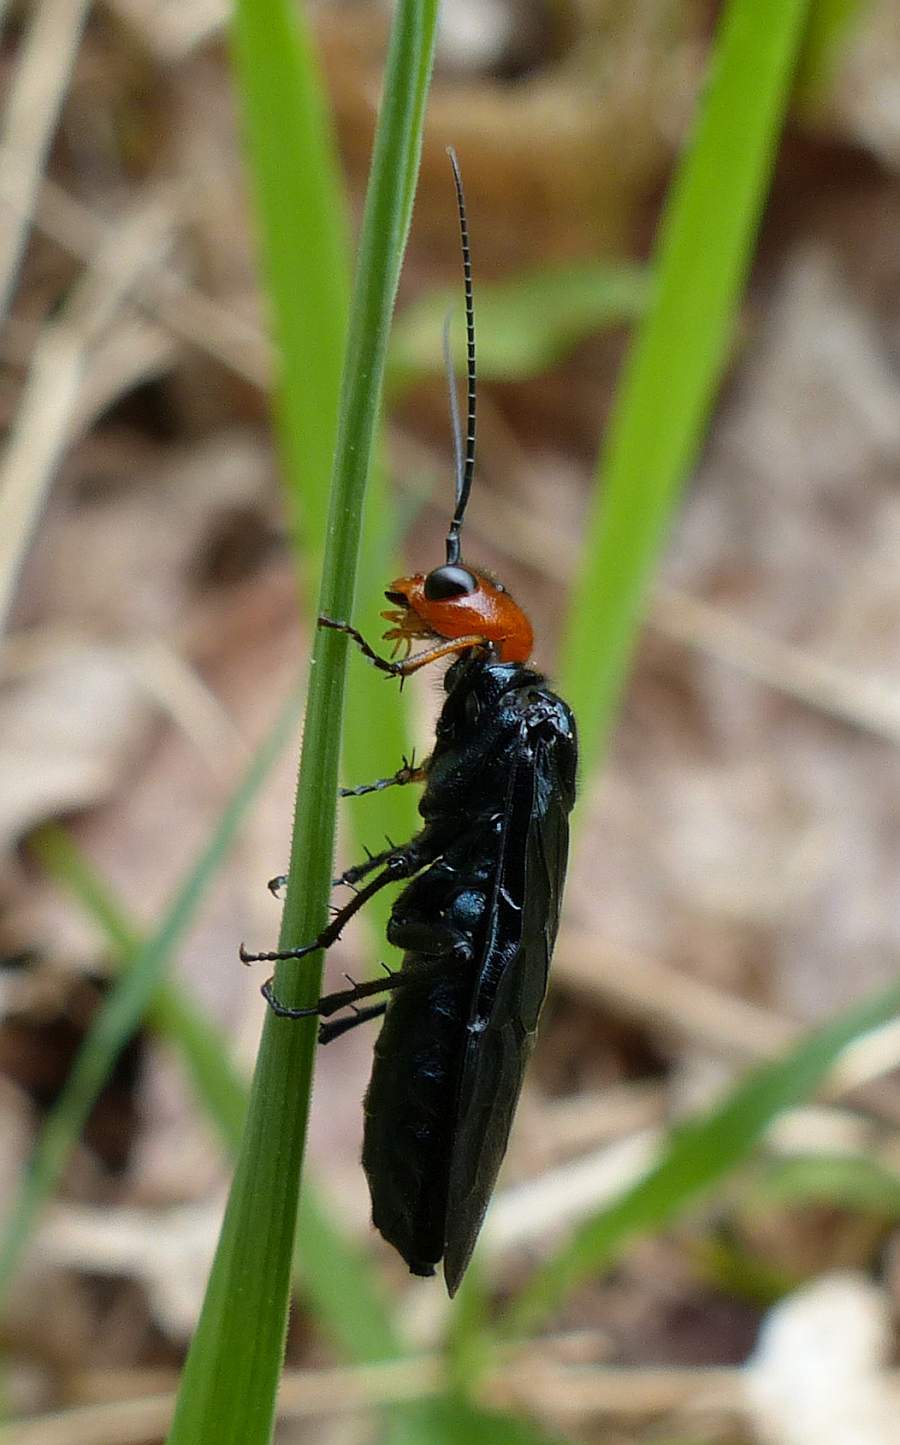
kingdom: Animalia
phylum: Arthropoda
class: Insecta
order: Hymenoptera
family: Pamphiliidae
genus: Acantholyda
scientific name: Acantholyda erythrocephala
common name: Pine false webworm
